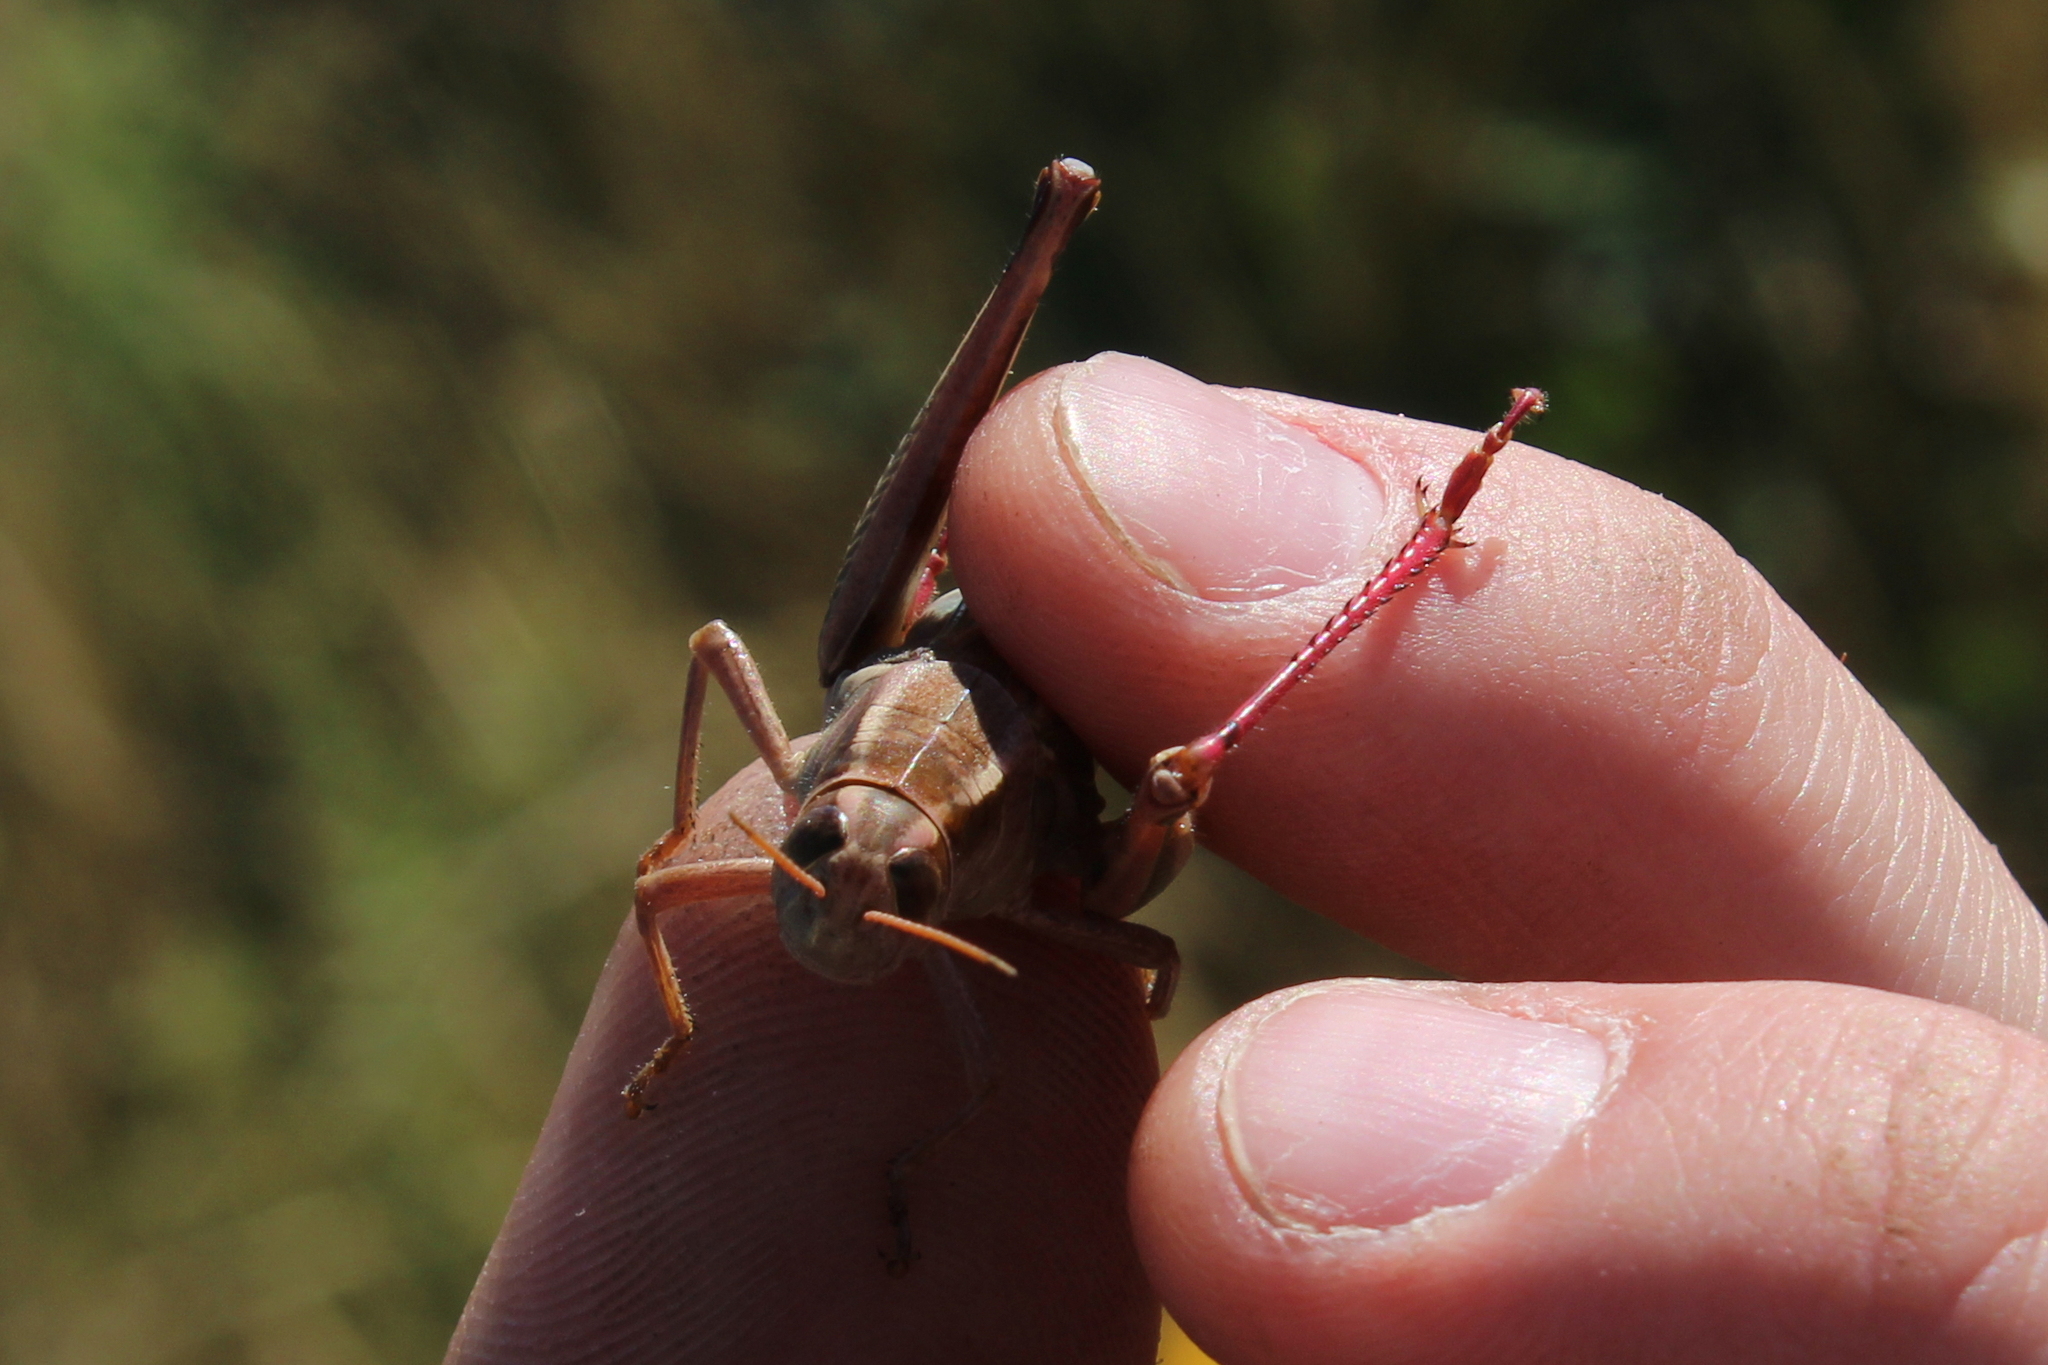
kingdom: Animalia
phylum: Arthropoda
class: Insecta
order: Orthoptera
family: Acrididae
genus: Melanoplus
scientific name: Melanoplus bivittatus
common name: Two-striped grasshopper
